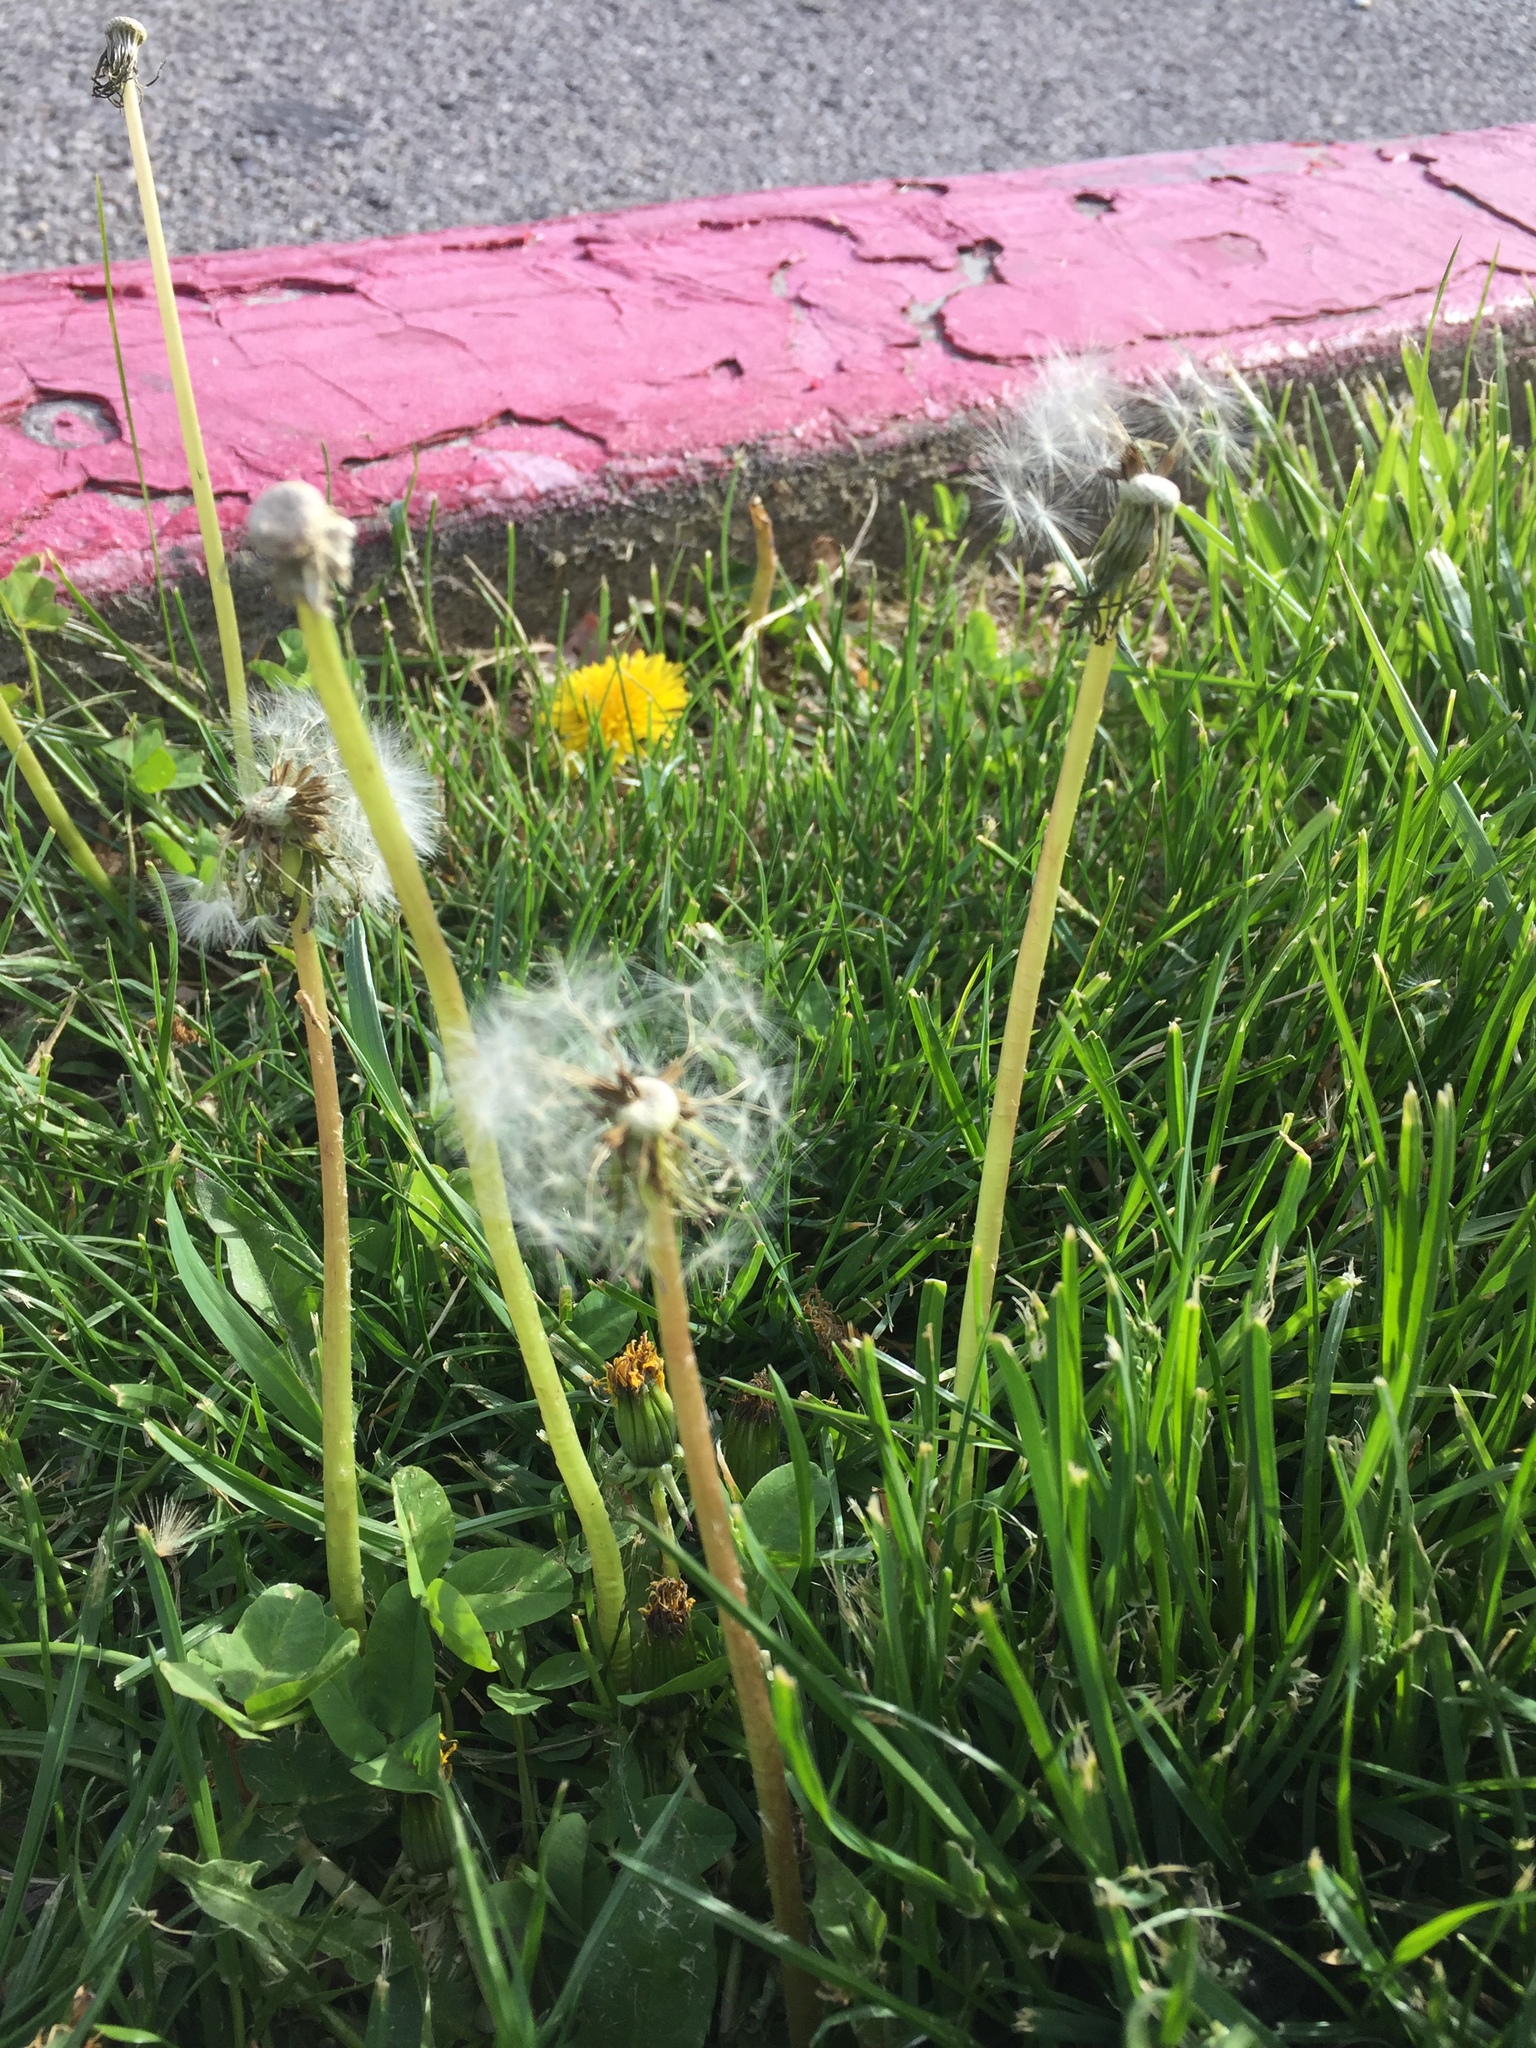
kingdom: Plantae
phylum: Tracheophyta
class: Magnoliopsida
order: Asterales
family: Asteraceae
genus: Taraxacum
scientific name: Taraxacum officinale
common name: Common dandelion
